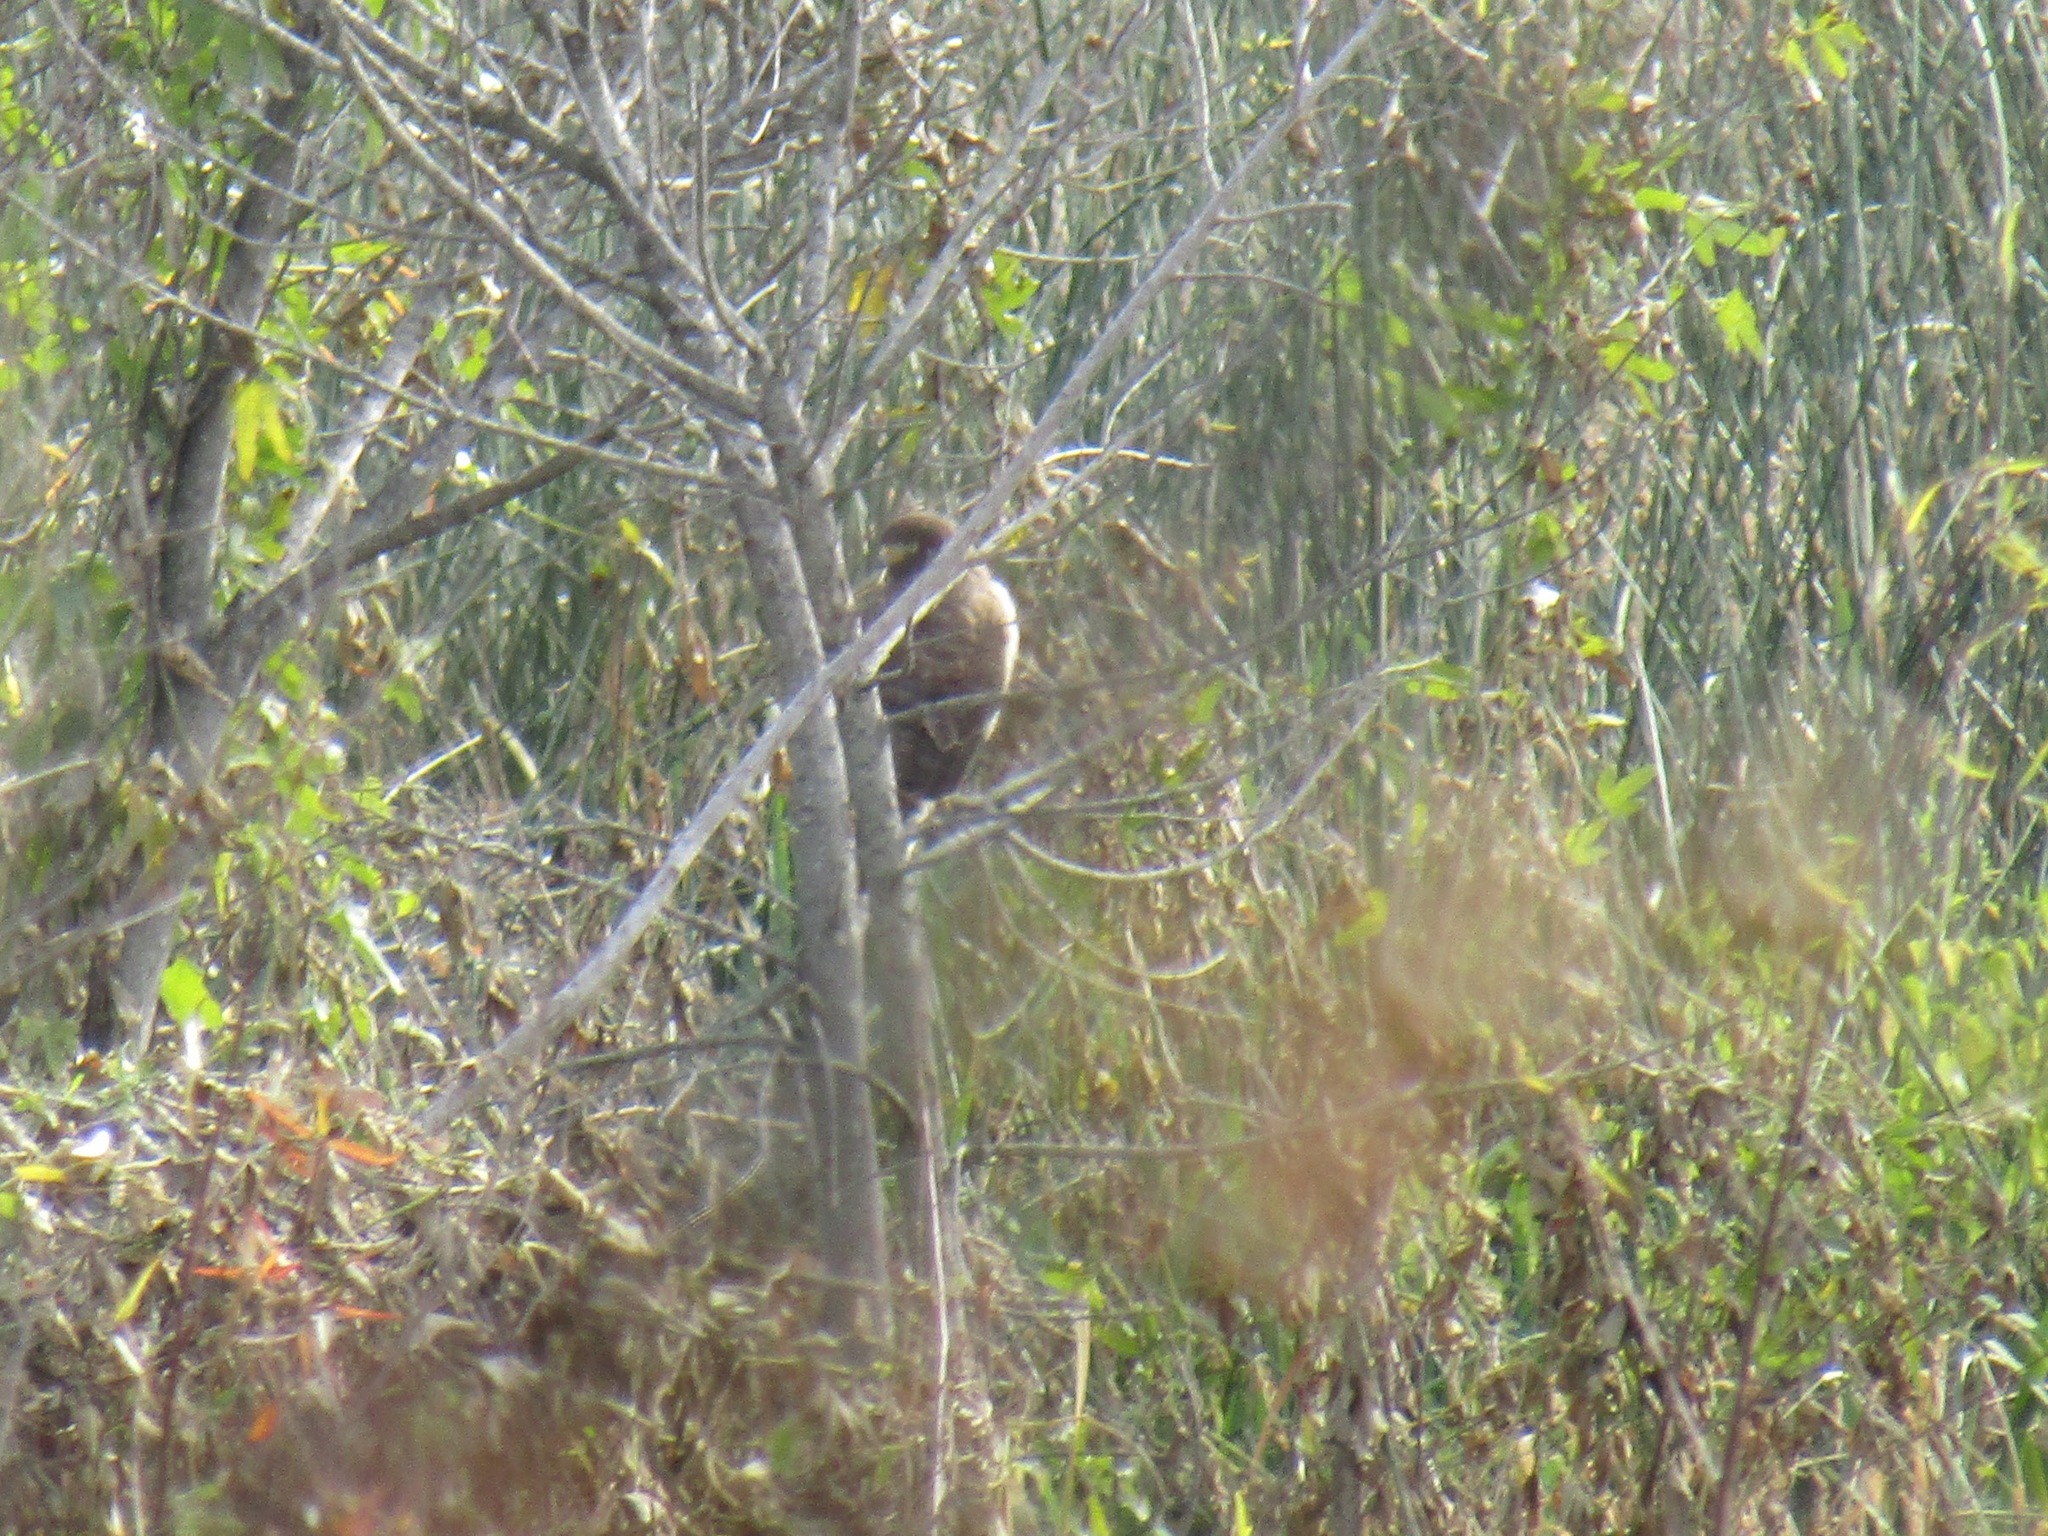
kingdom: Animalia
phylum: Chordata
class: Aves
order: Accipitriformes
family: Accipitridae
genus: Rupornis
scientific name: Rupornis magnirostris
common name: Roadside hawk
